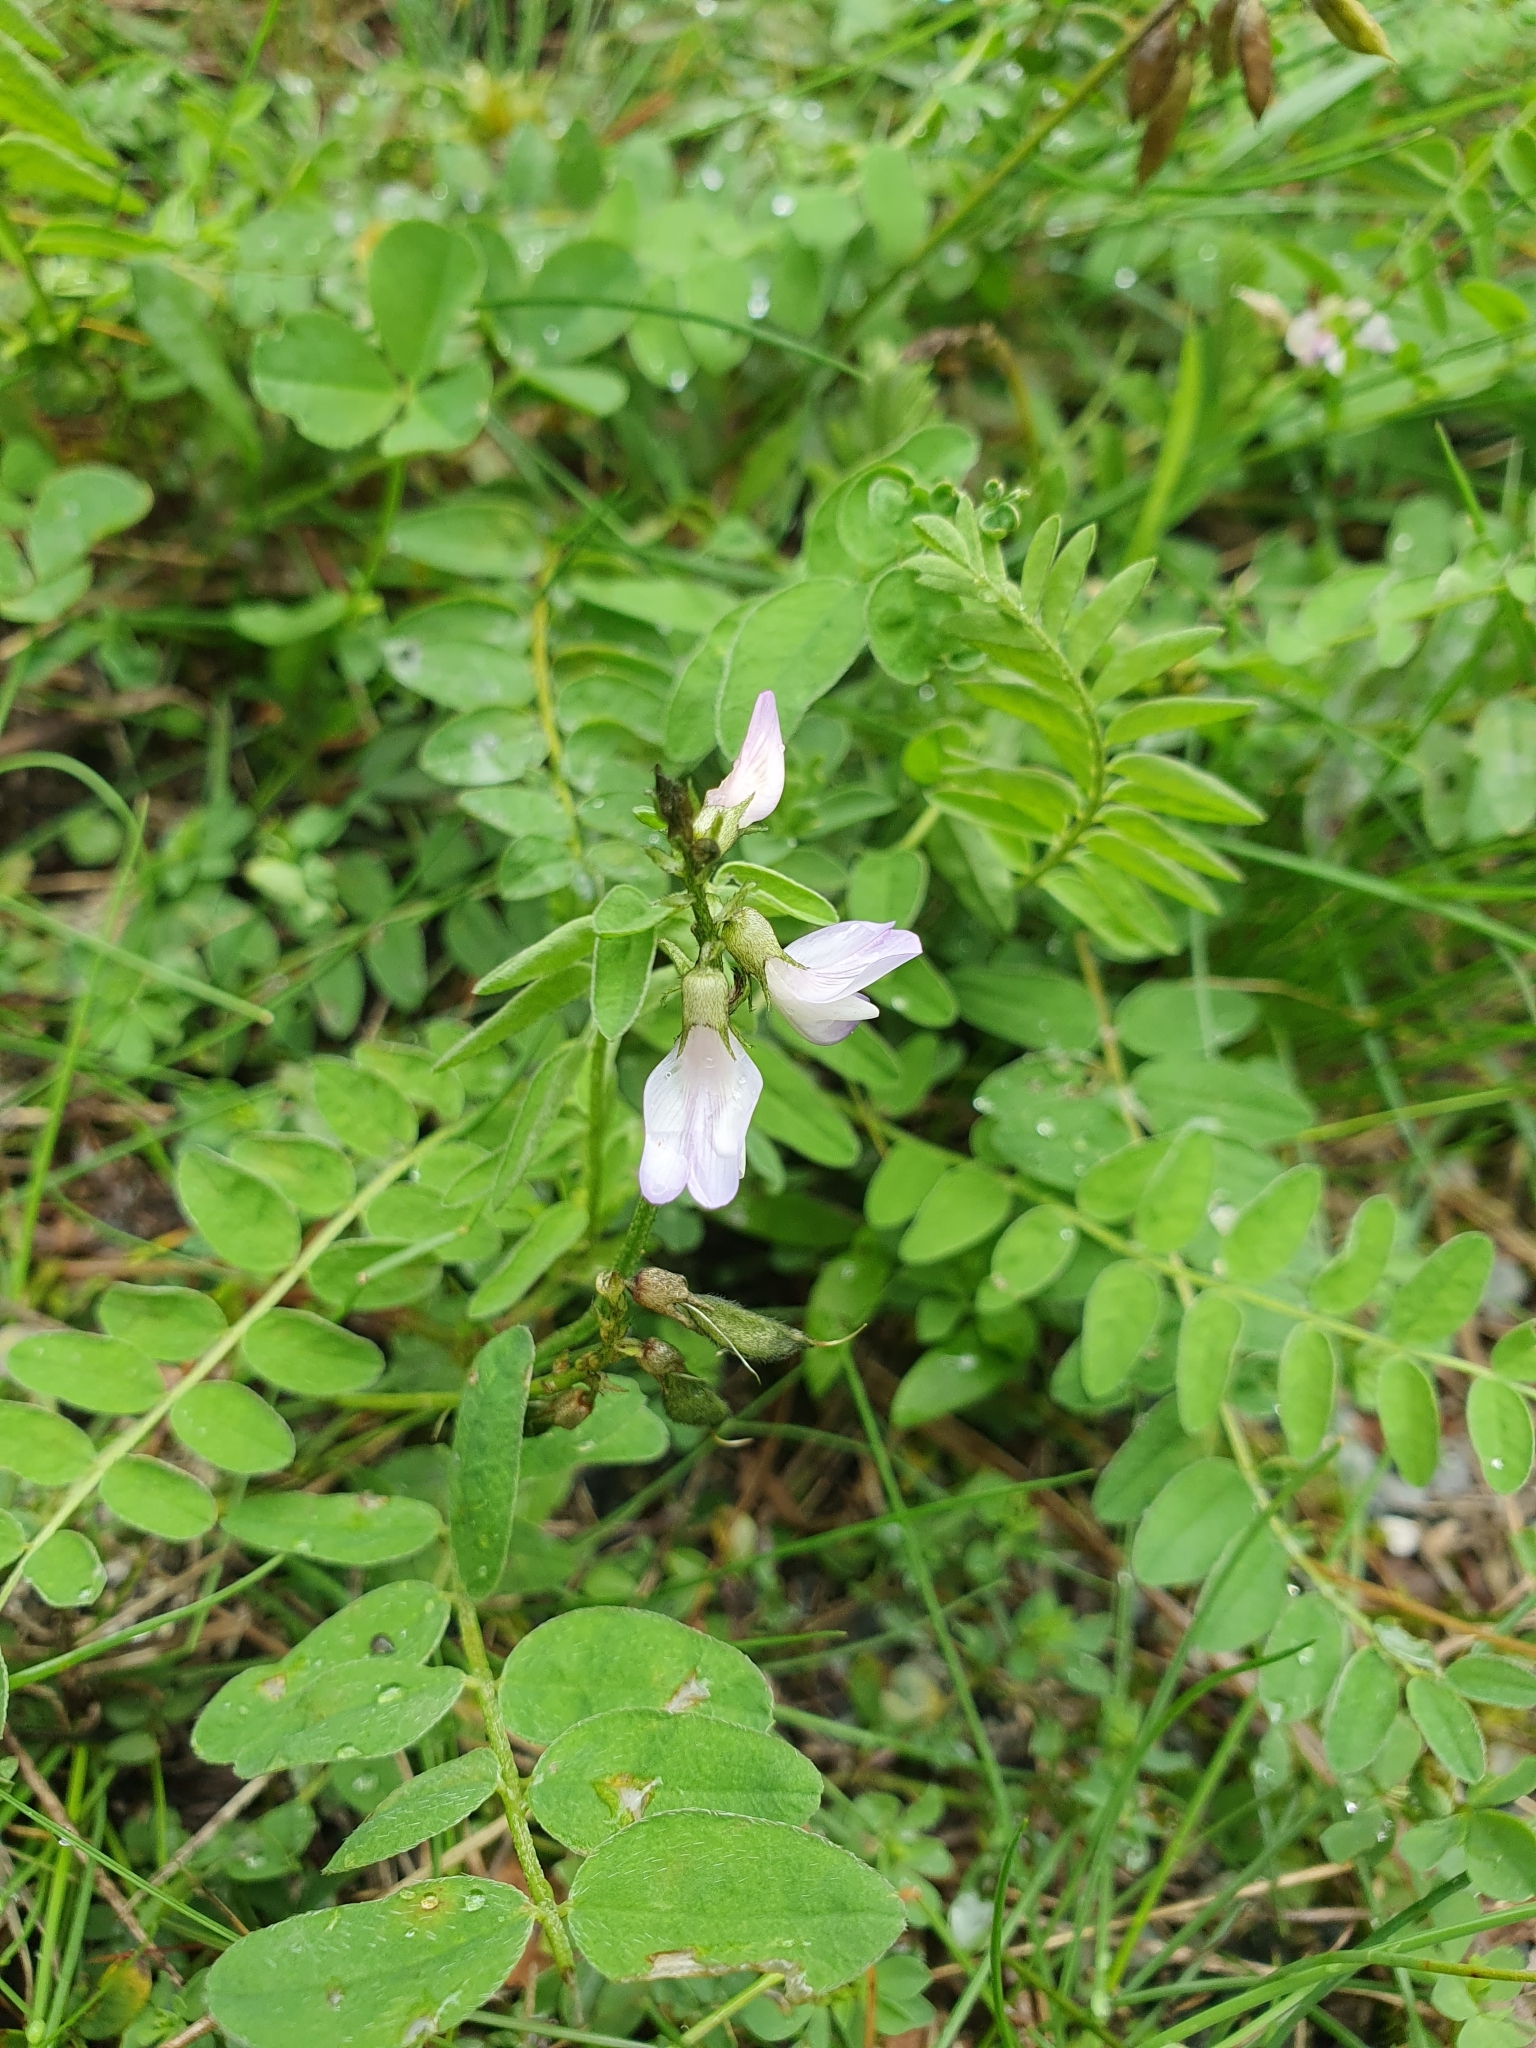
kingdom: Plantae
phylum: Tracheophyta
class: Magnoliopsida
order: Fabales
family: Fabaceae
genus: Astragalus
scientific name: Astragalus alpinus
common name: Alpine milk-vetch
